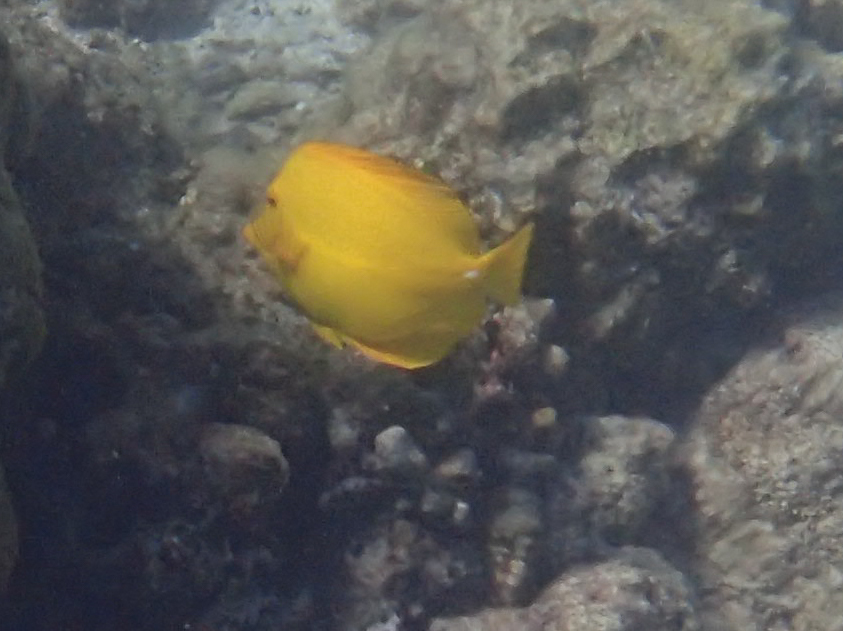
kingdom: Animalia
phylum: Chordata
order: Perciformes
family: Acanthuridae
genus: Zebrasoma
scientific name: Zebrasoma flavescens
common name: Yellow tang
